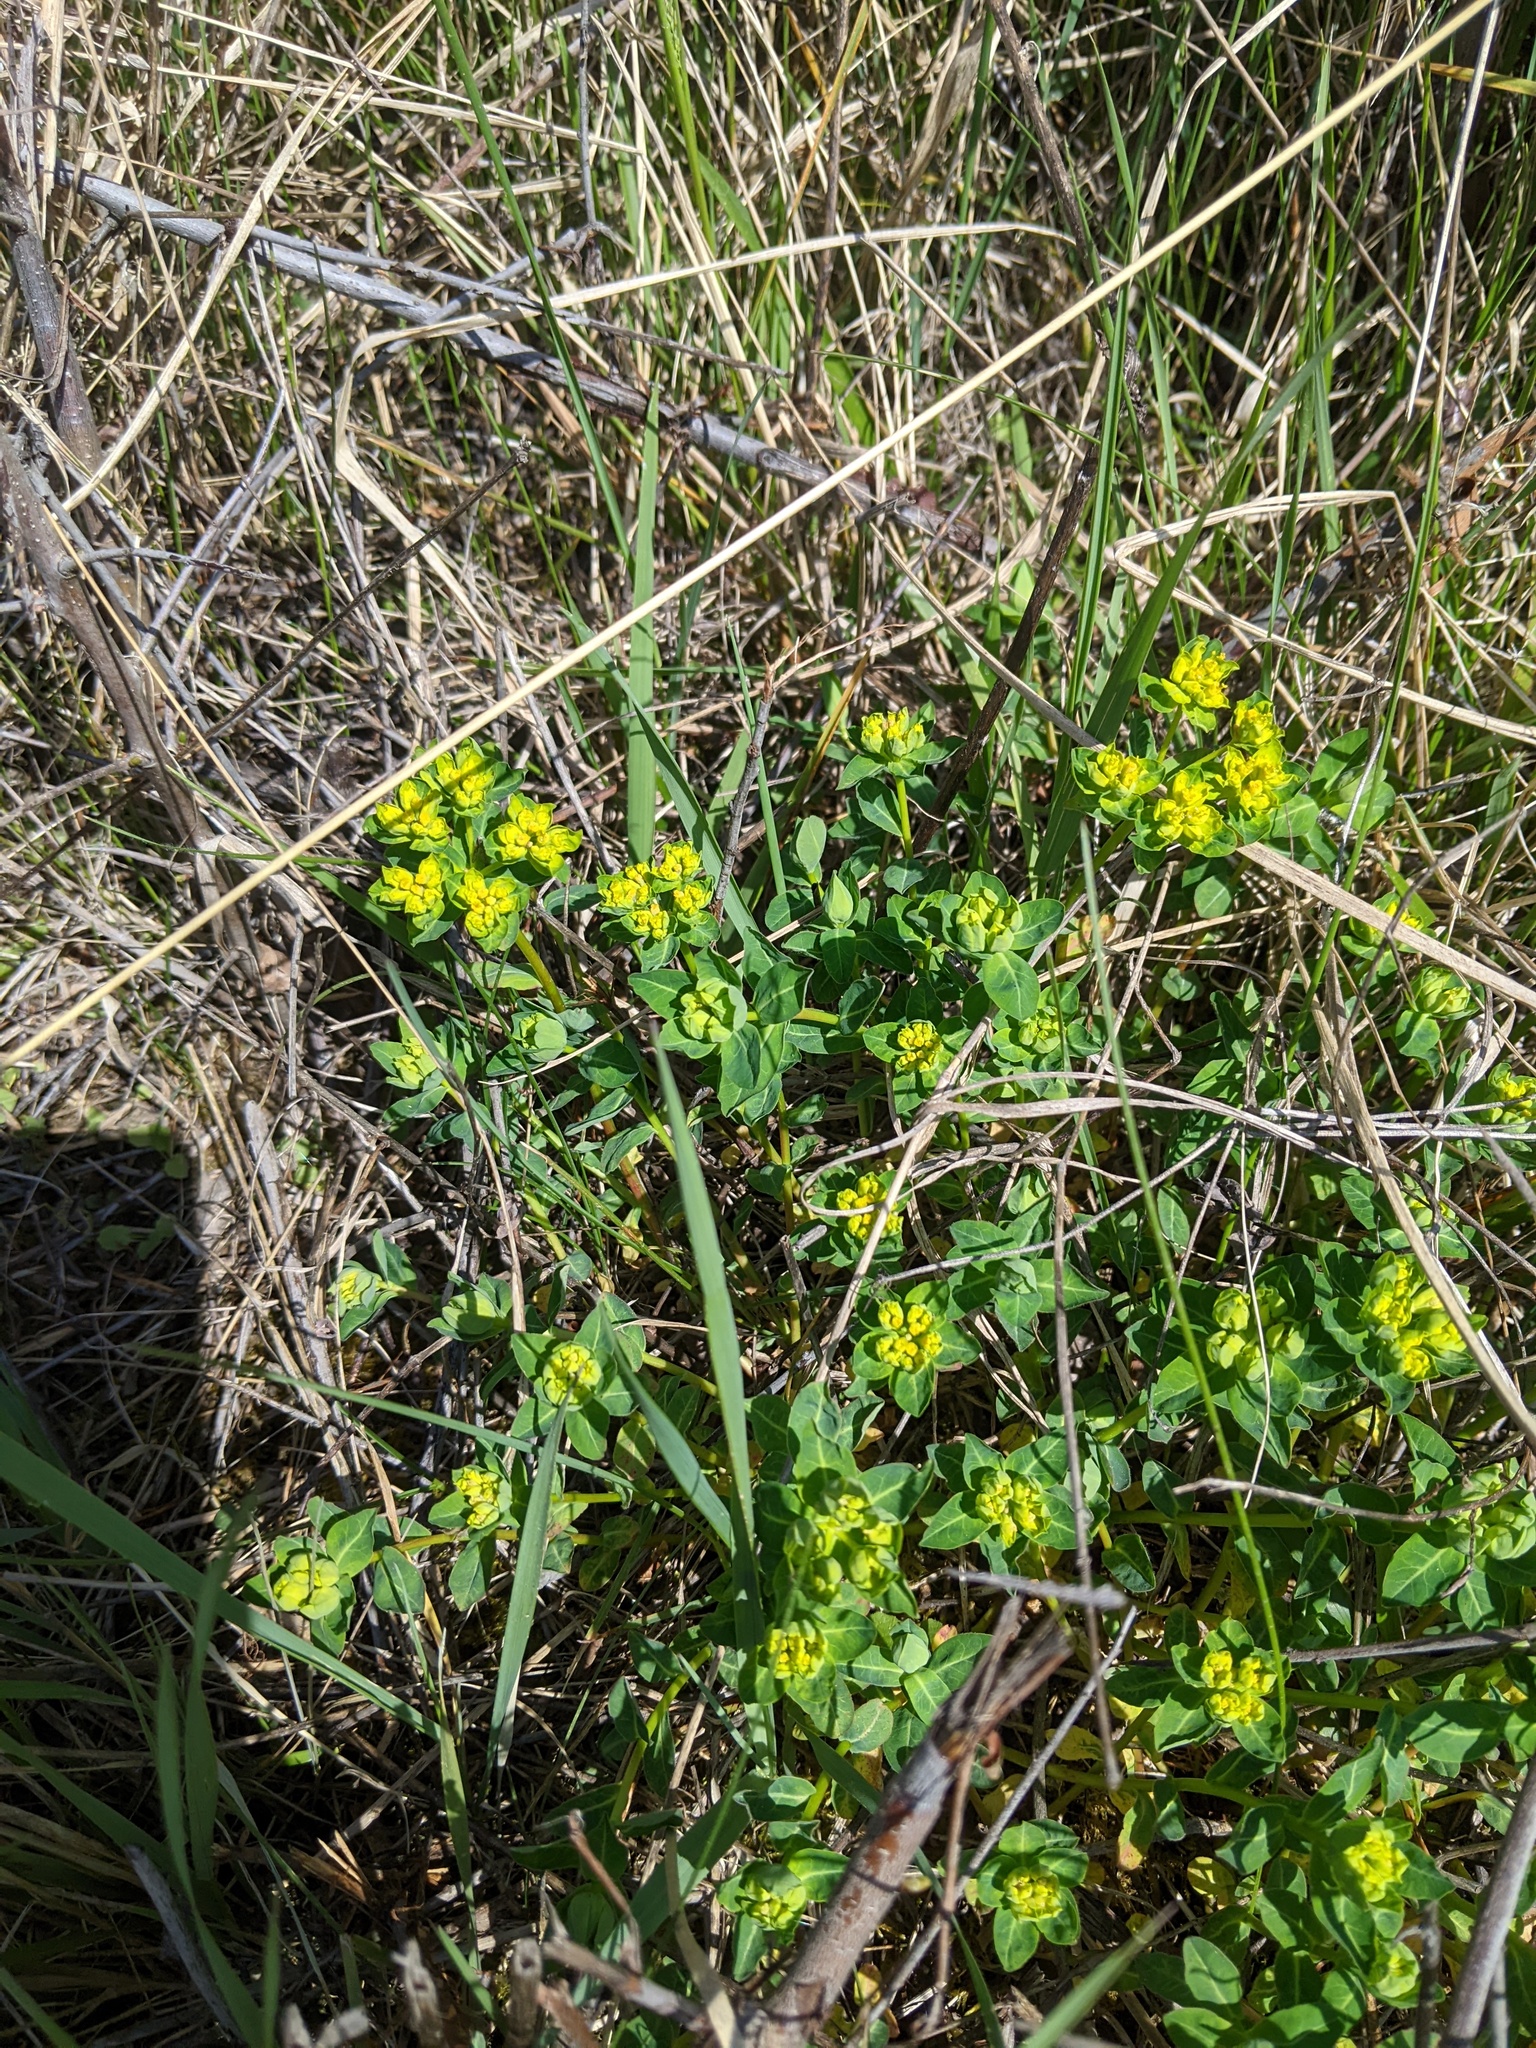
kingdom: Plantae
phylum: Tracheophyta
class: Magnoliopsida
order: Malpighiales
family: Euphorbiaceae
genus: Euphorbia
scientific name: Euphorbia verrucosa
